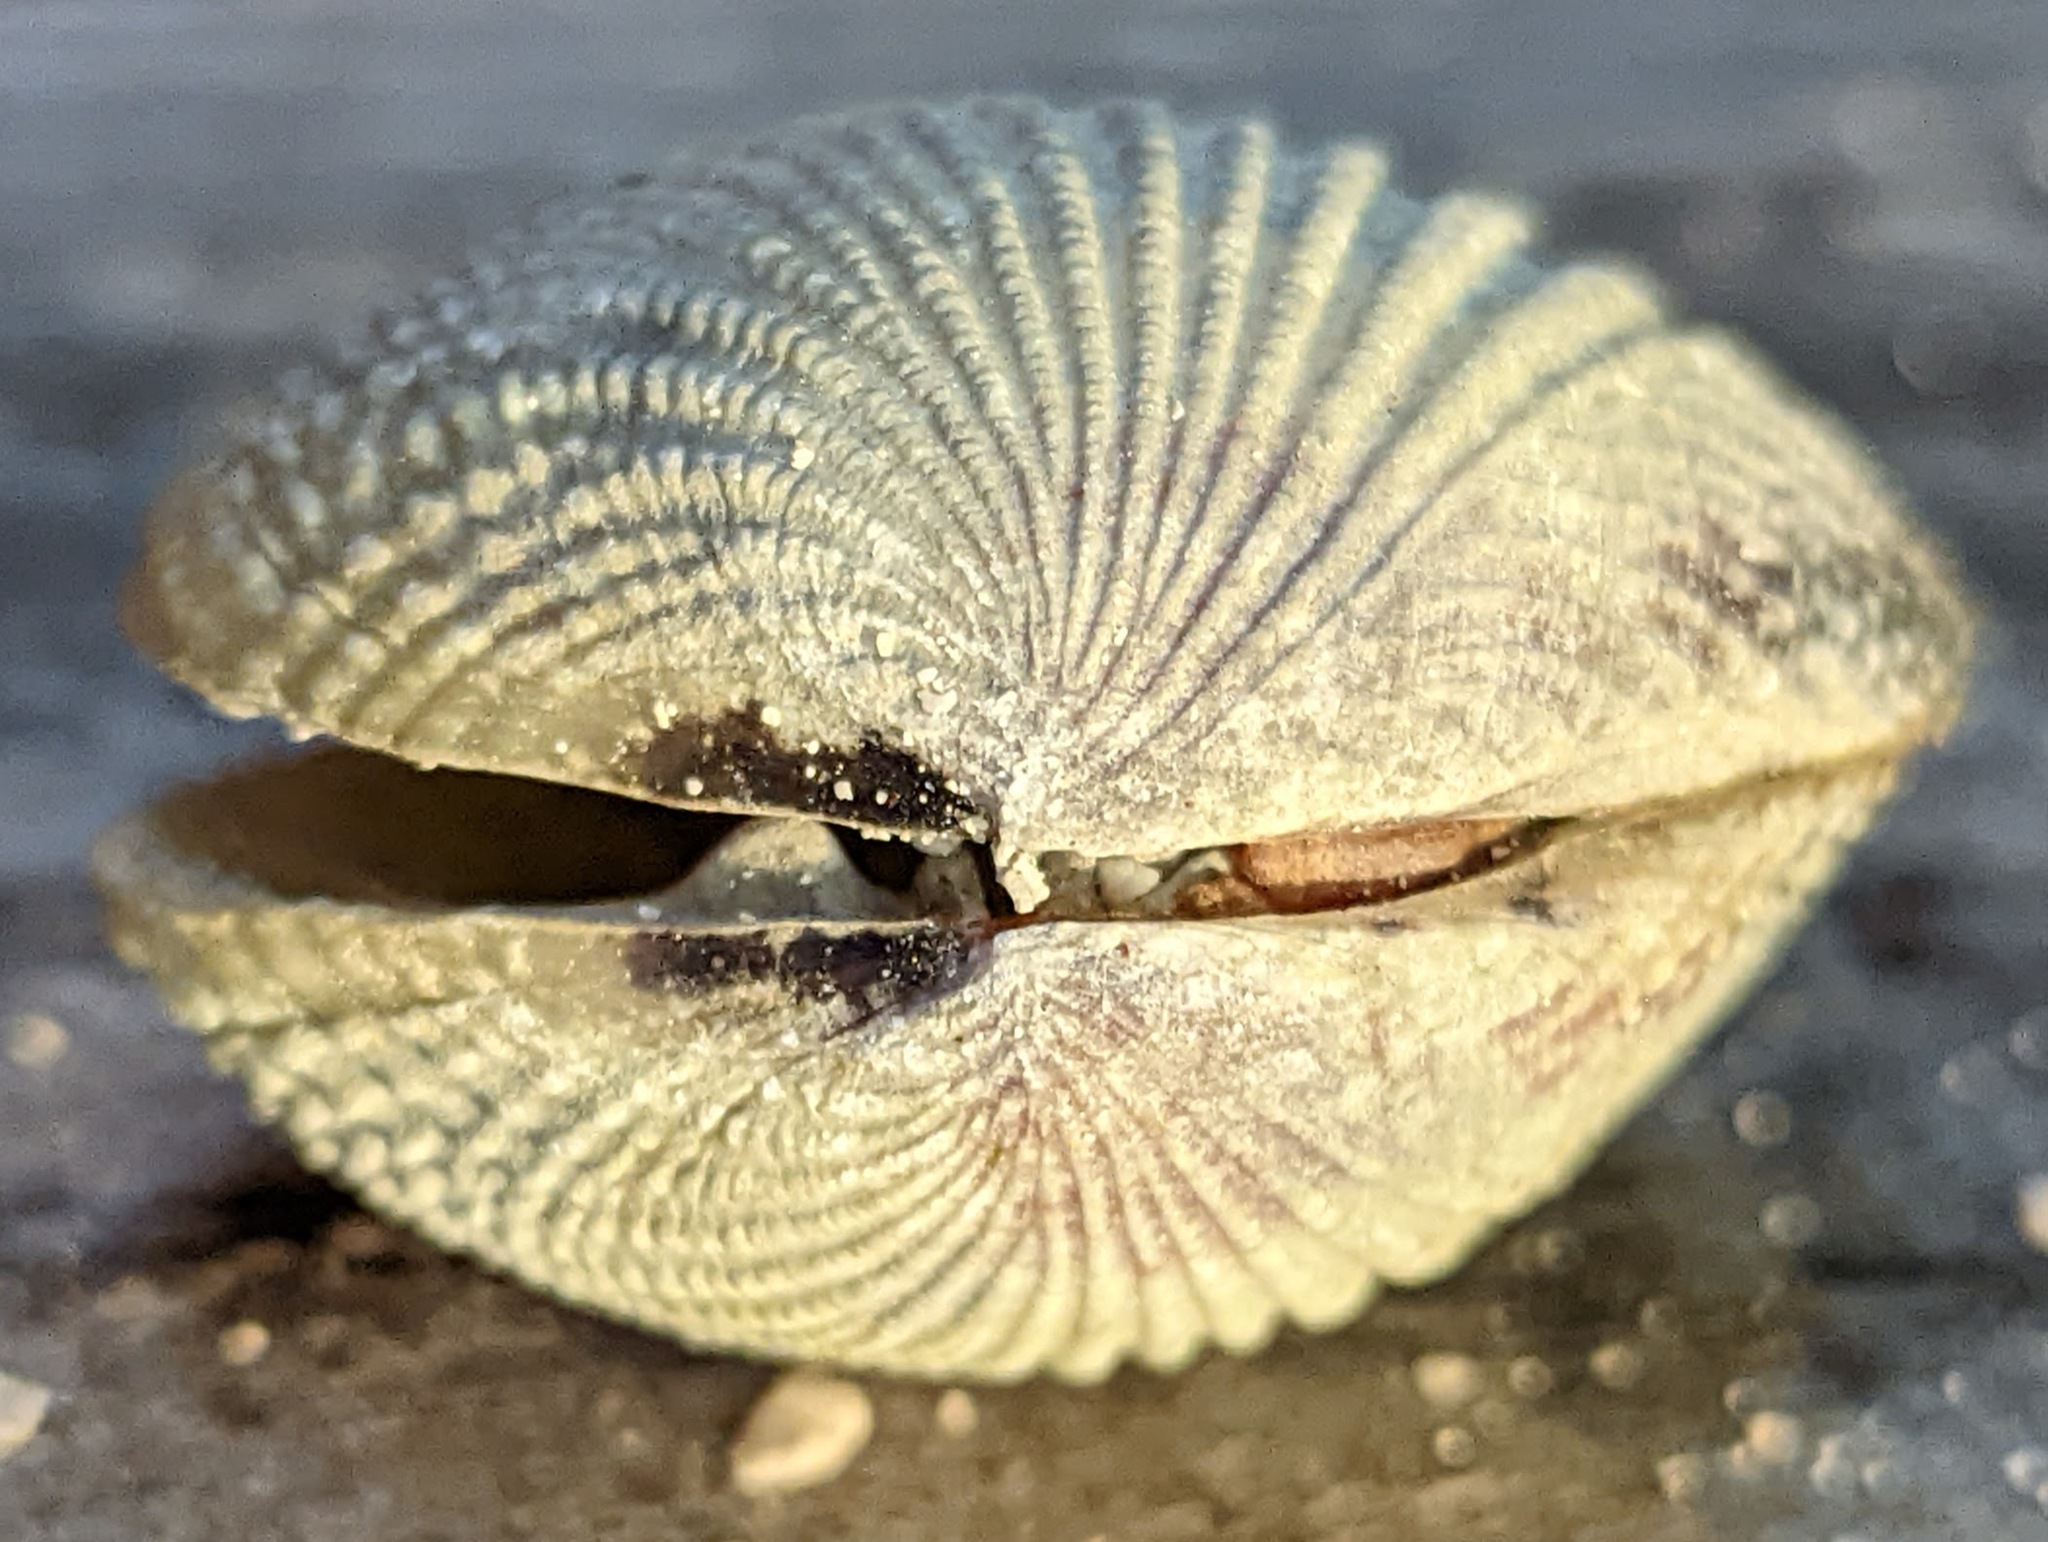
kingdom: Animalia
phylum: Mollusca
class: Bivalvia
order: Venerida
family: Veneridae
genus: Gafrarium
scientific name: Gafrarium pectinatum
